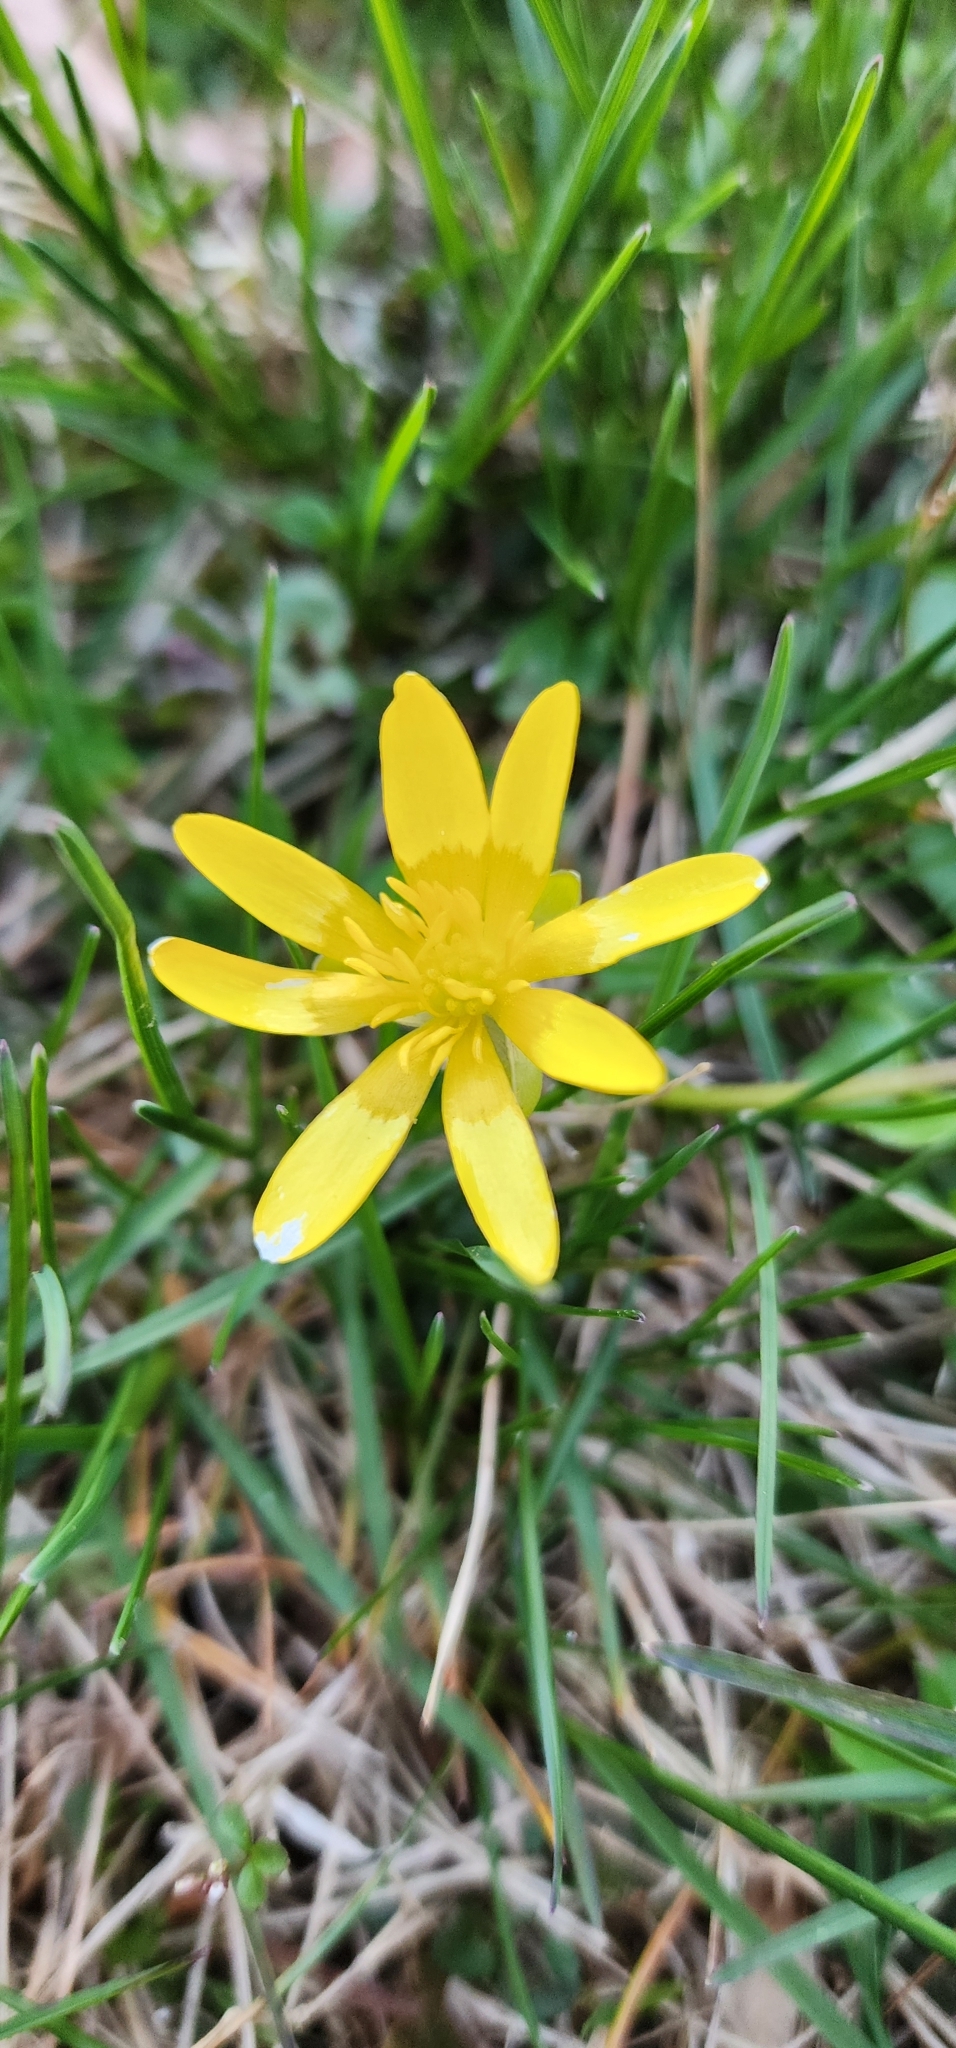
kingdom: Plantae
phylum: Tracheophyta
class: Magnoliopsida
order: Ranunculales
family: Ranunculaceae
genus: Ficaria
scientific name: Ficaria verna
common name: Lesser celandine
